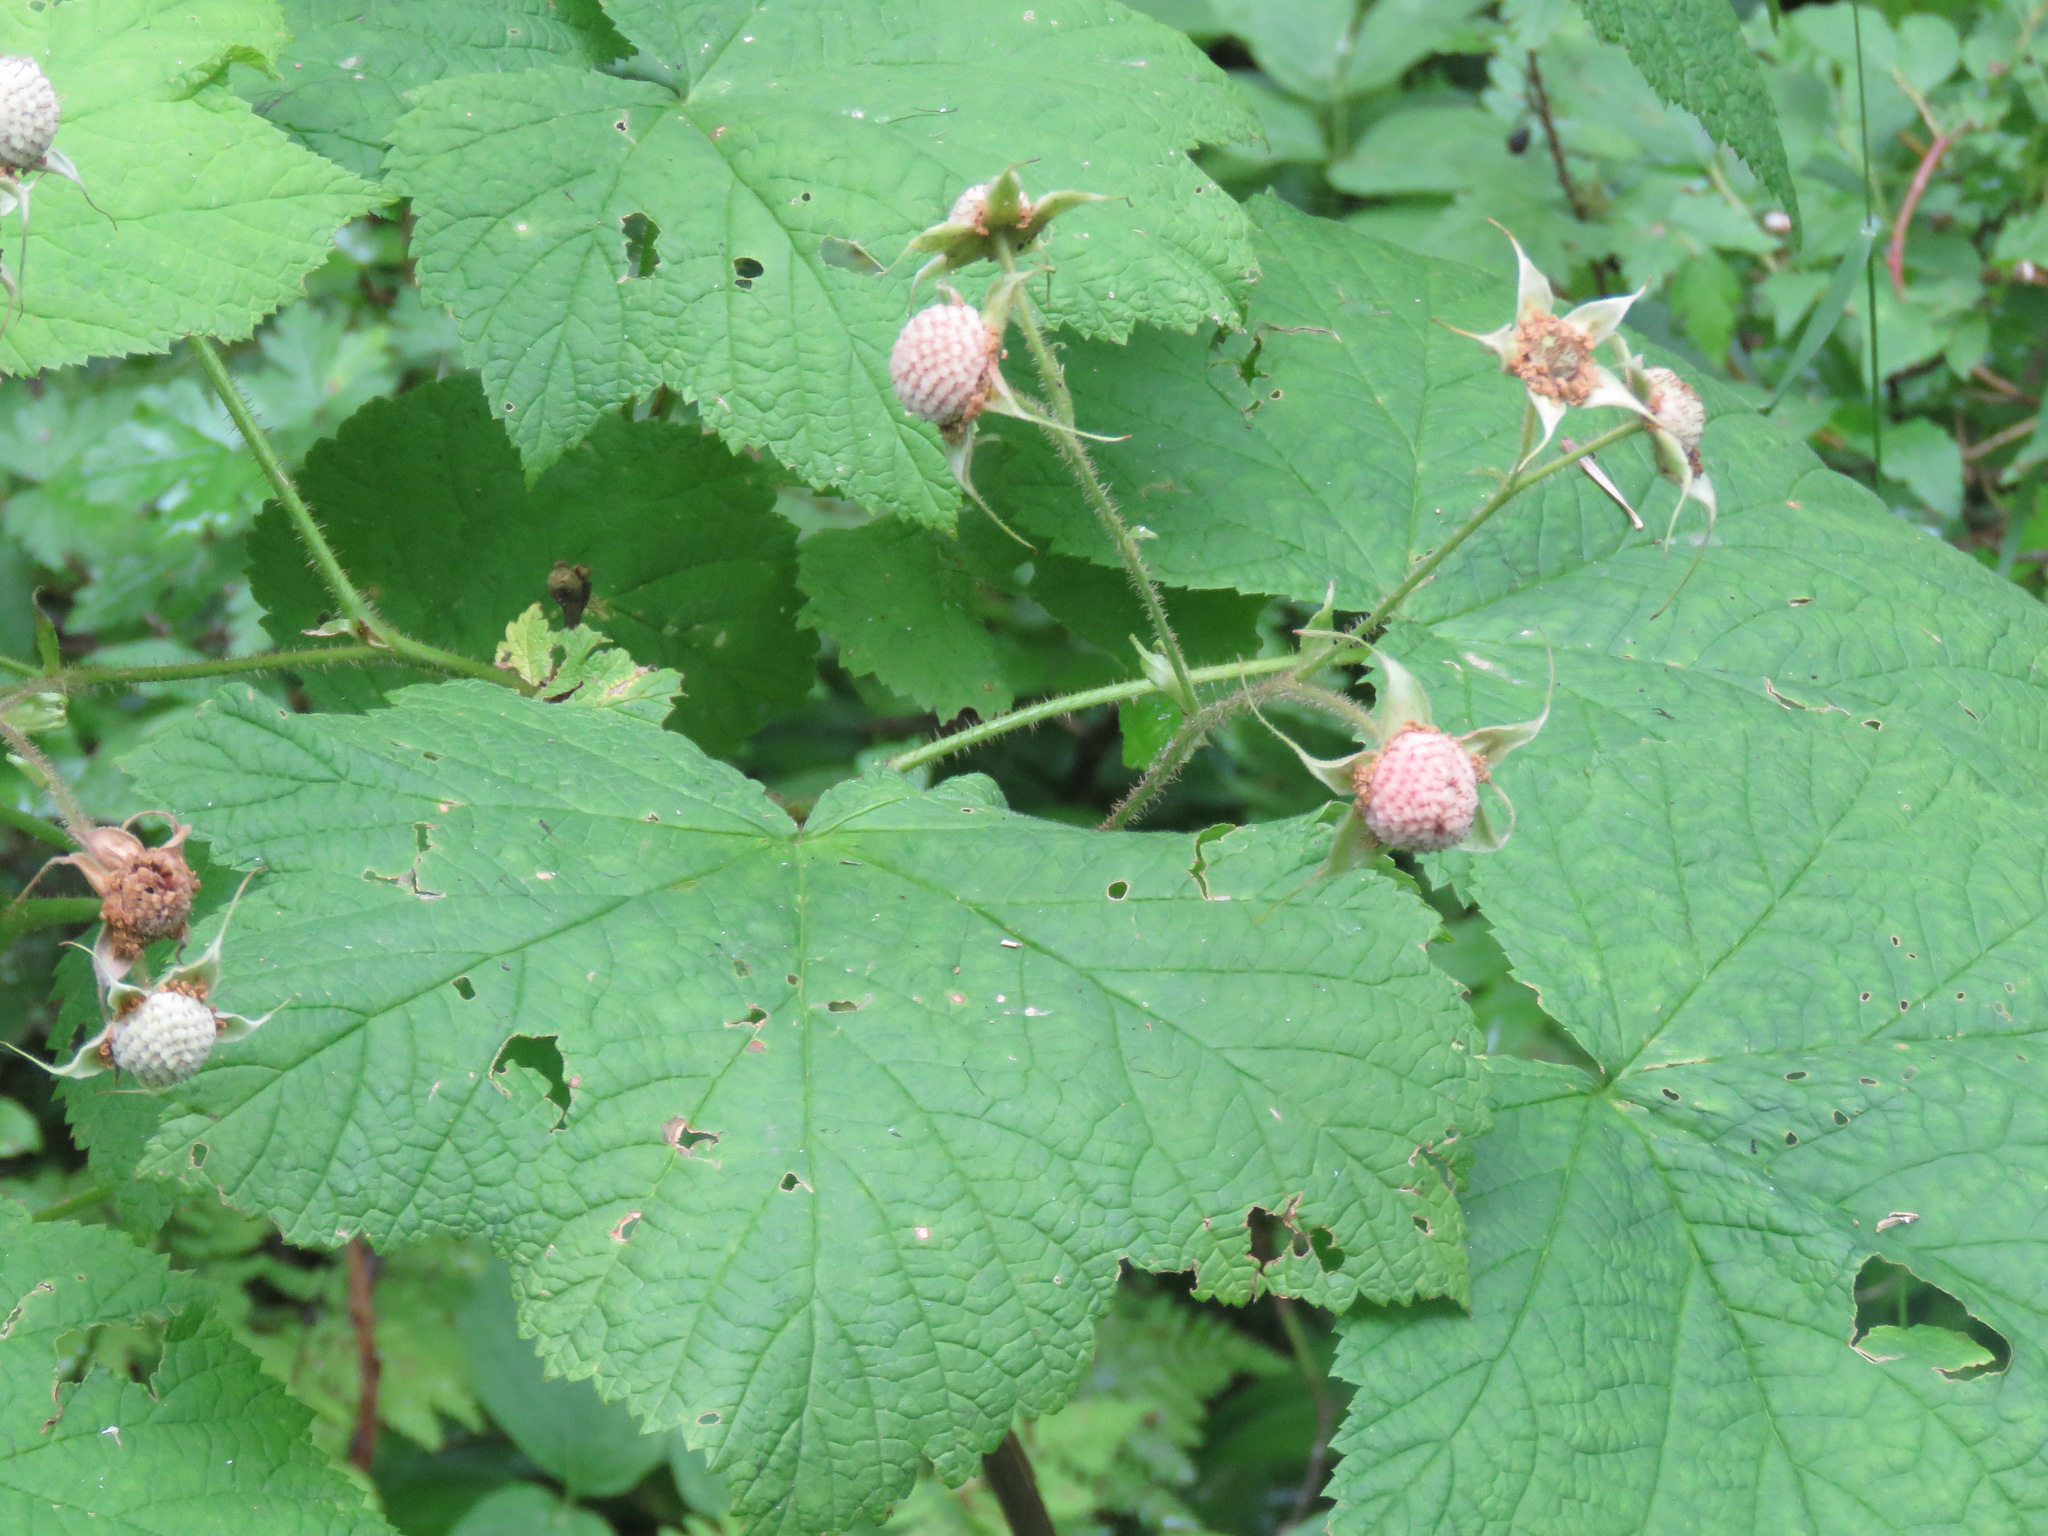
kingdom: Plantae
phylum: Tracheophyta
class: Magnoliopsida
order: Rosales
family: Rosaceae
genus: Rubus
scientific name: Rubus parviflorus
